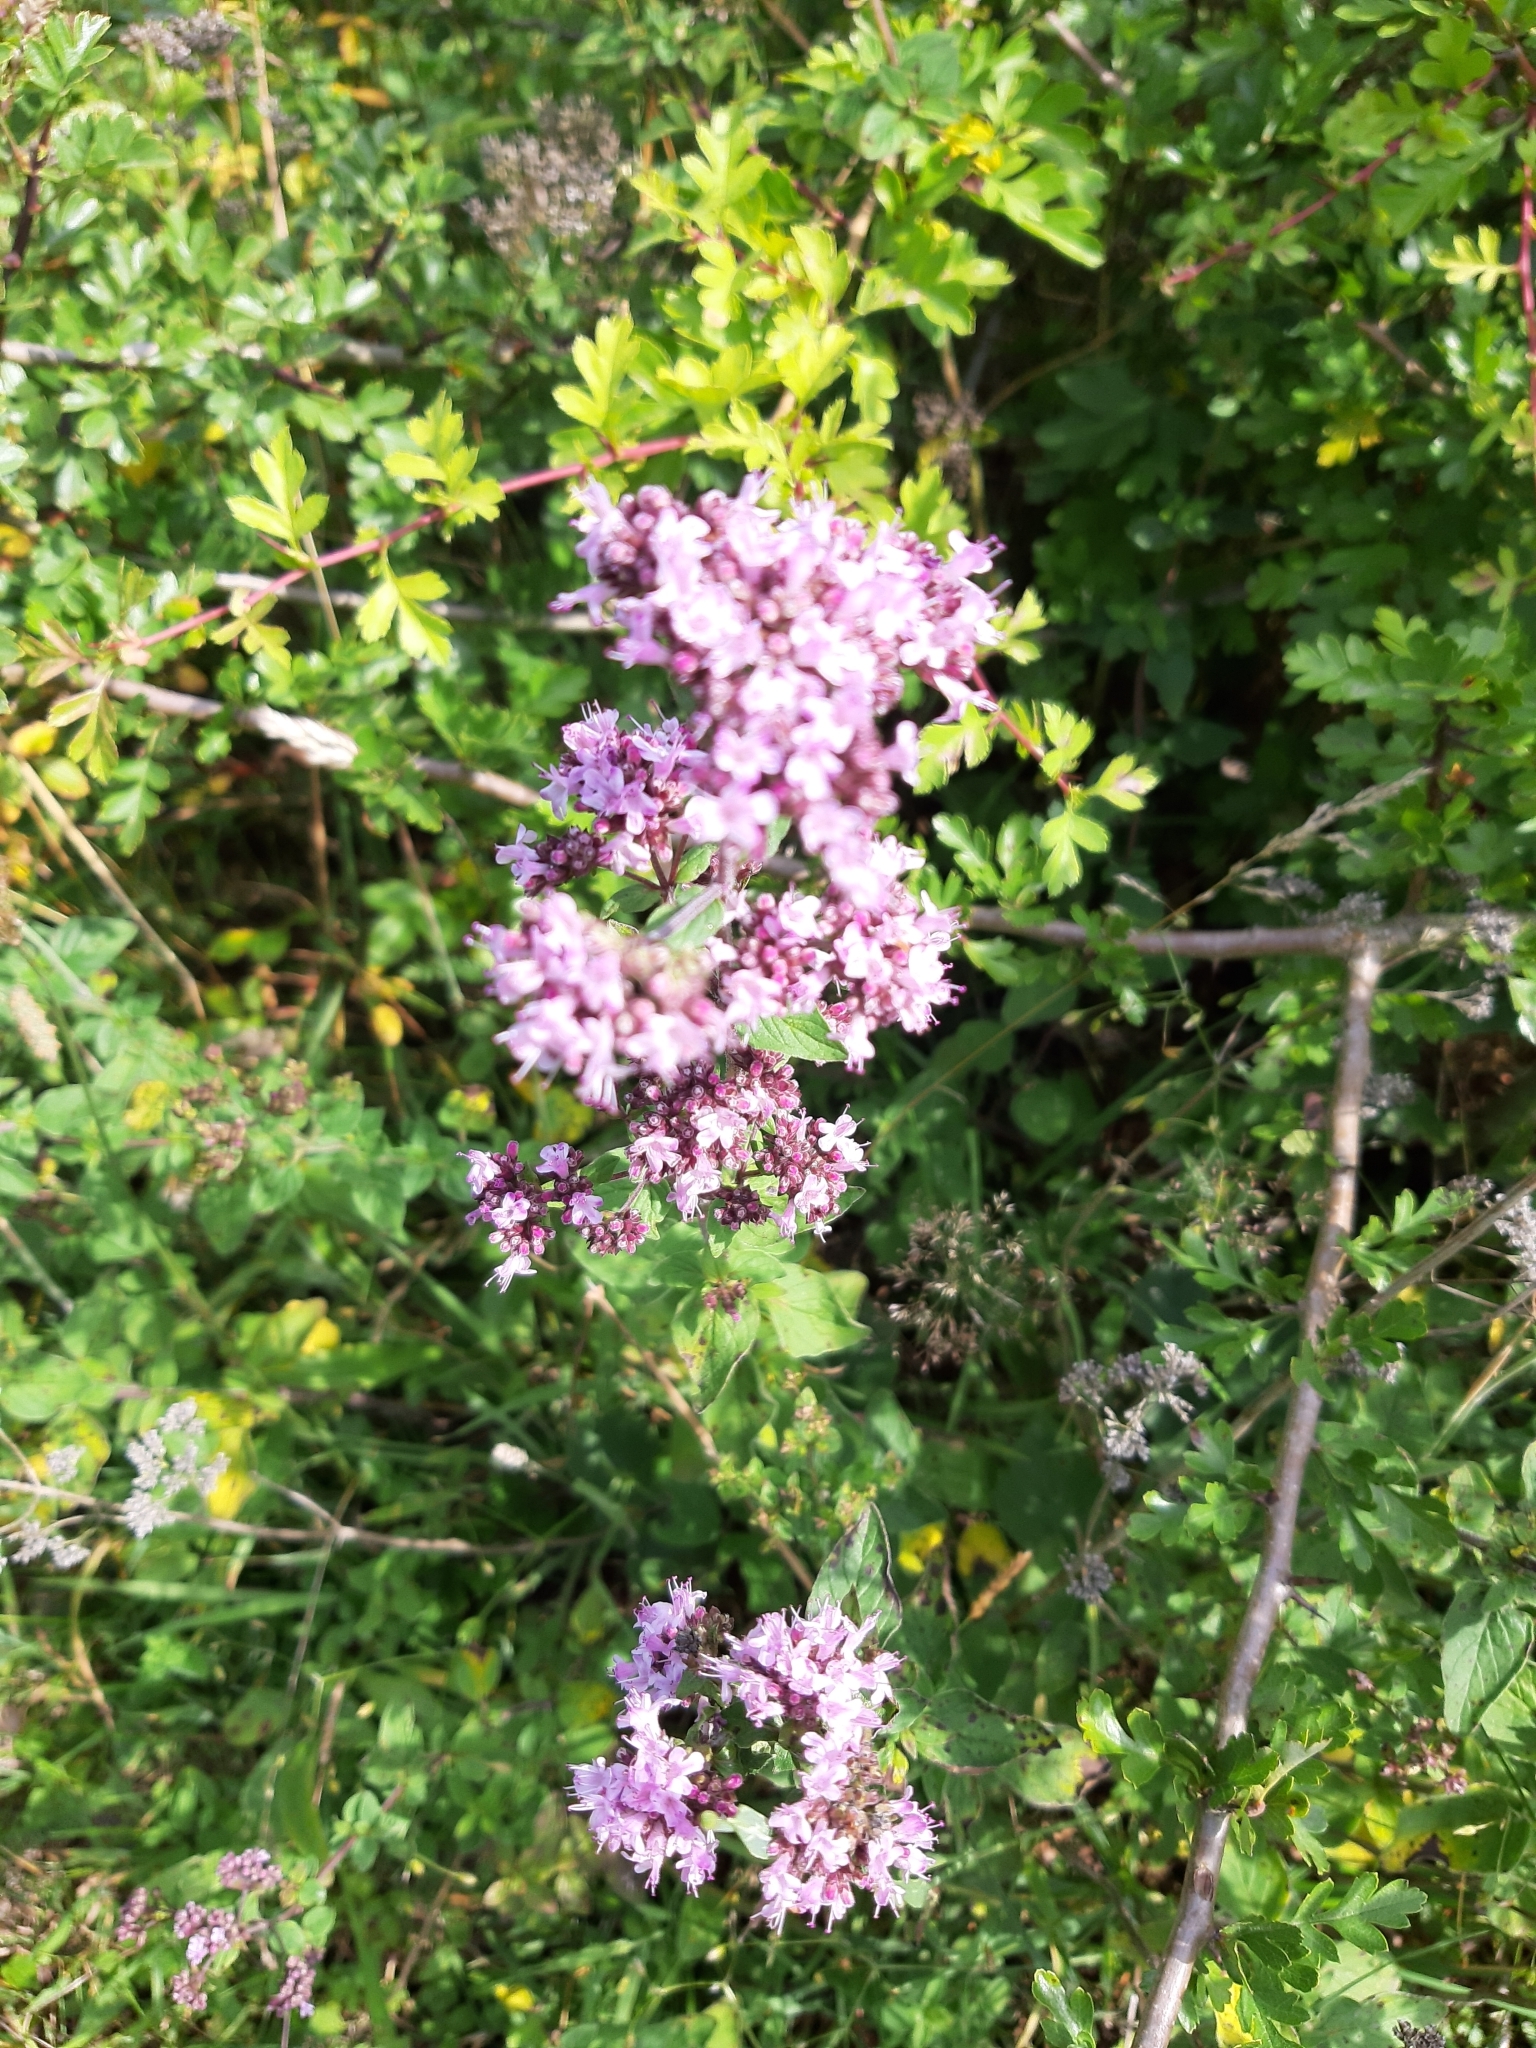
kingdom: Plantae
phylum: Tracheophyta
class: Magnoliopsida
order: Lamiales
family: Lamiaceae
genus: Origanum
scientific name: Origanum vulgare
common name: Wild marjoram
